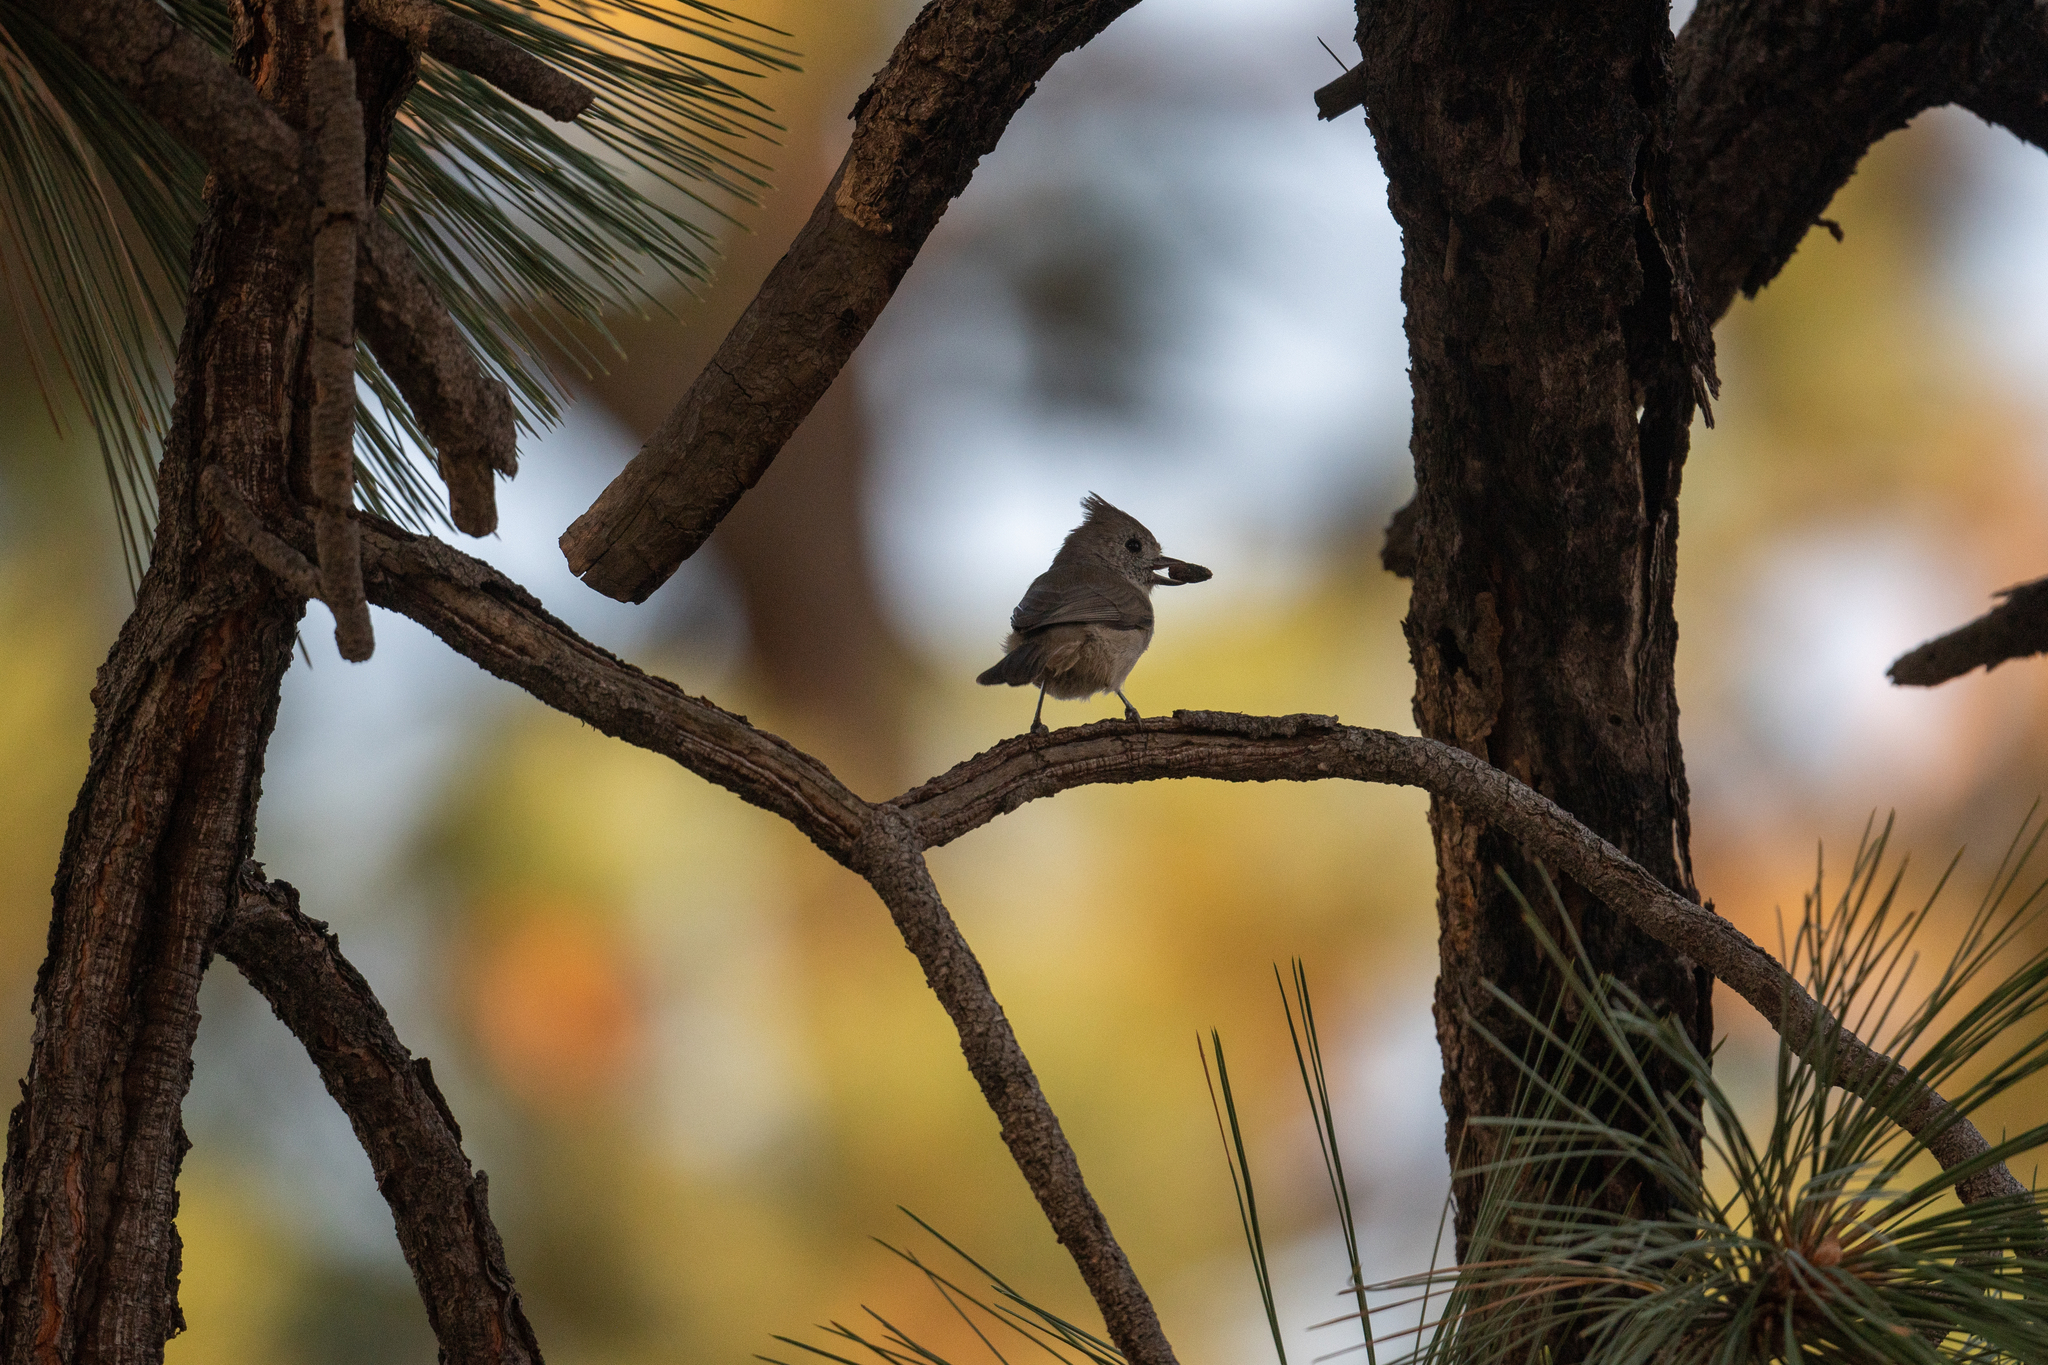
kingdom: Animalia
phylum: Chordata
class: Aves
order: Passeriformes
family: Paridae
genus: Baeolophus
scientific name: Baeolophus inornatus
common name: Oak titmouse
